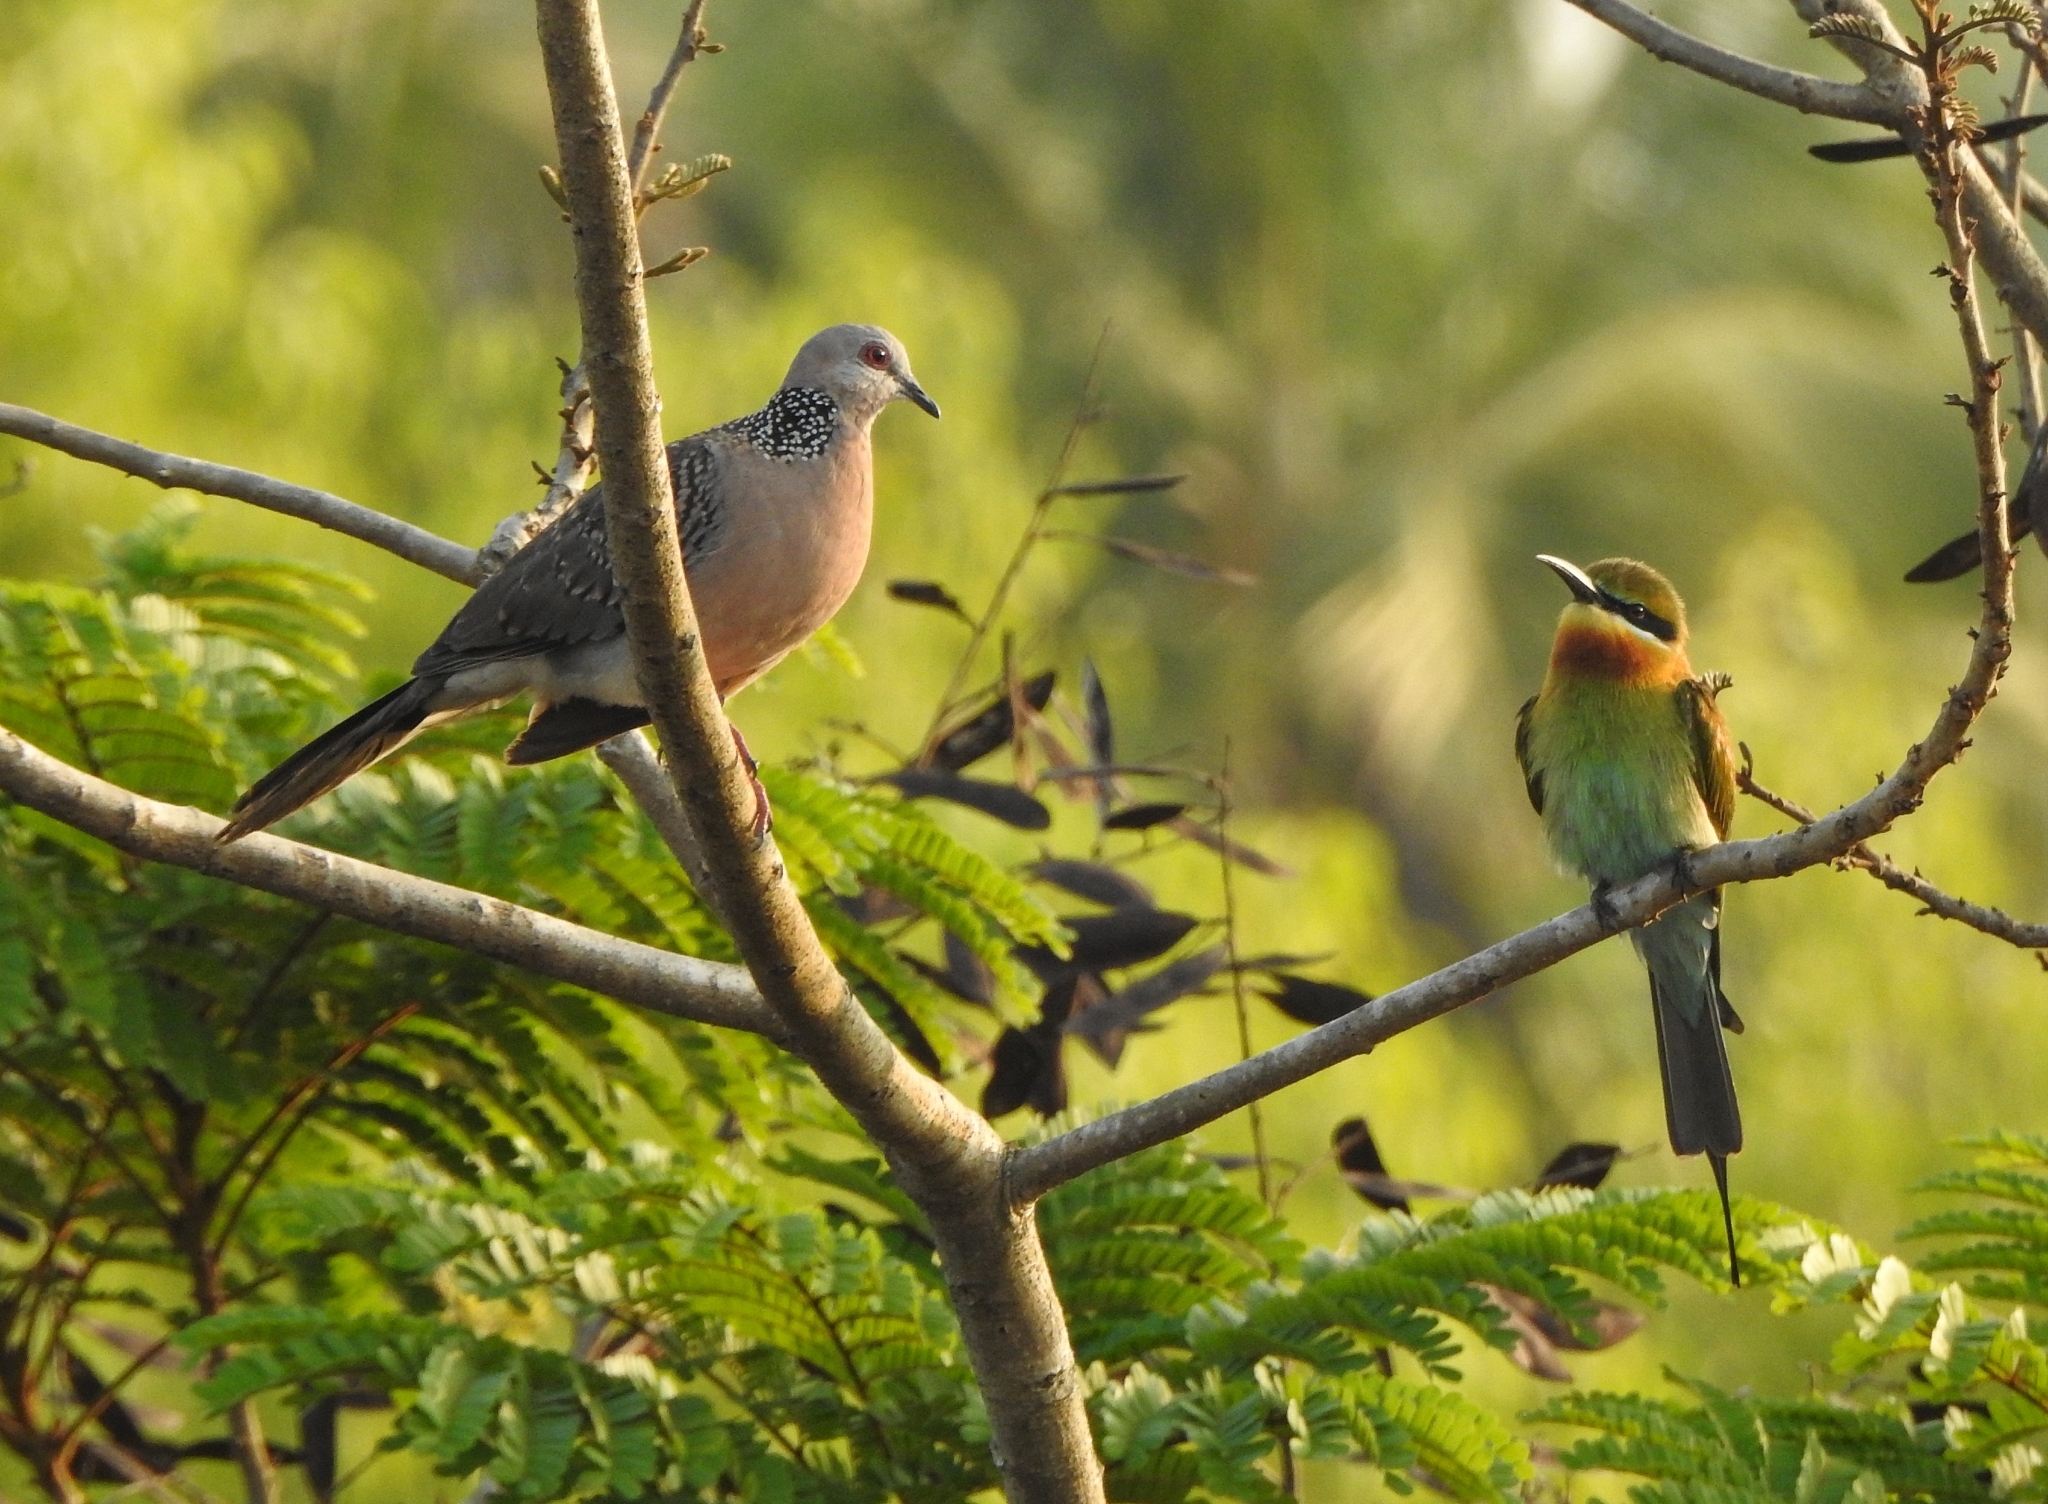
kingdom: Animalia
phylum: Chordata
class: Aves
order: Coraciiformes
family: Meropidae
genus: Merops
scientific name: Merops philippinus
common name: Blue-tailed bee-eater
